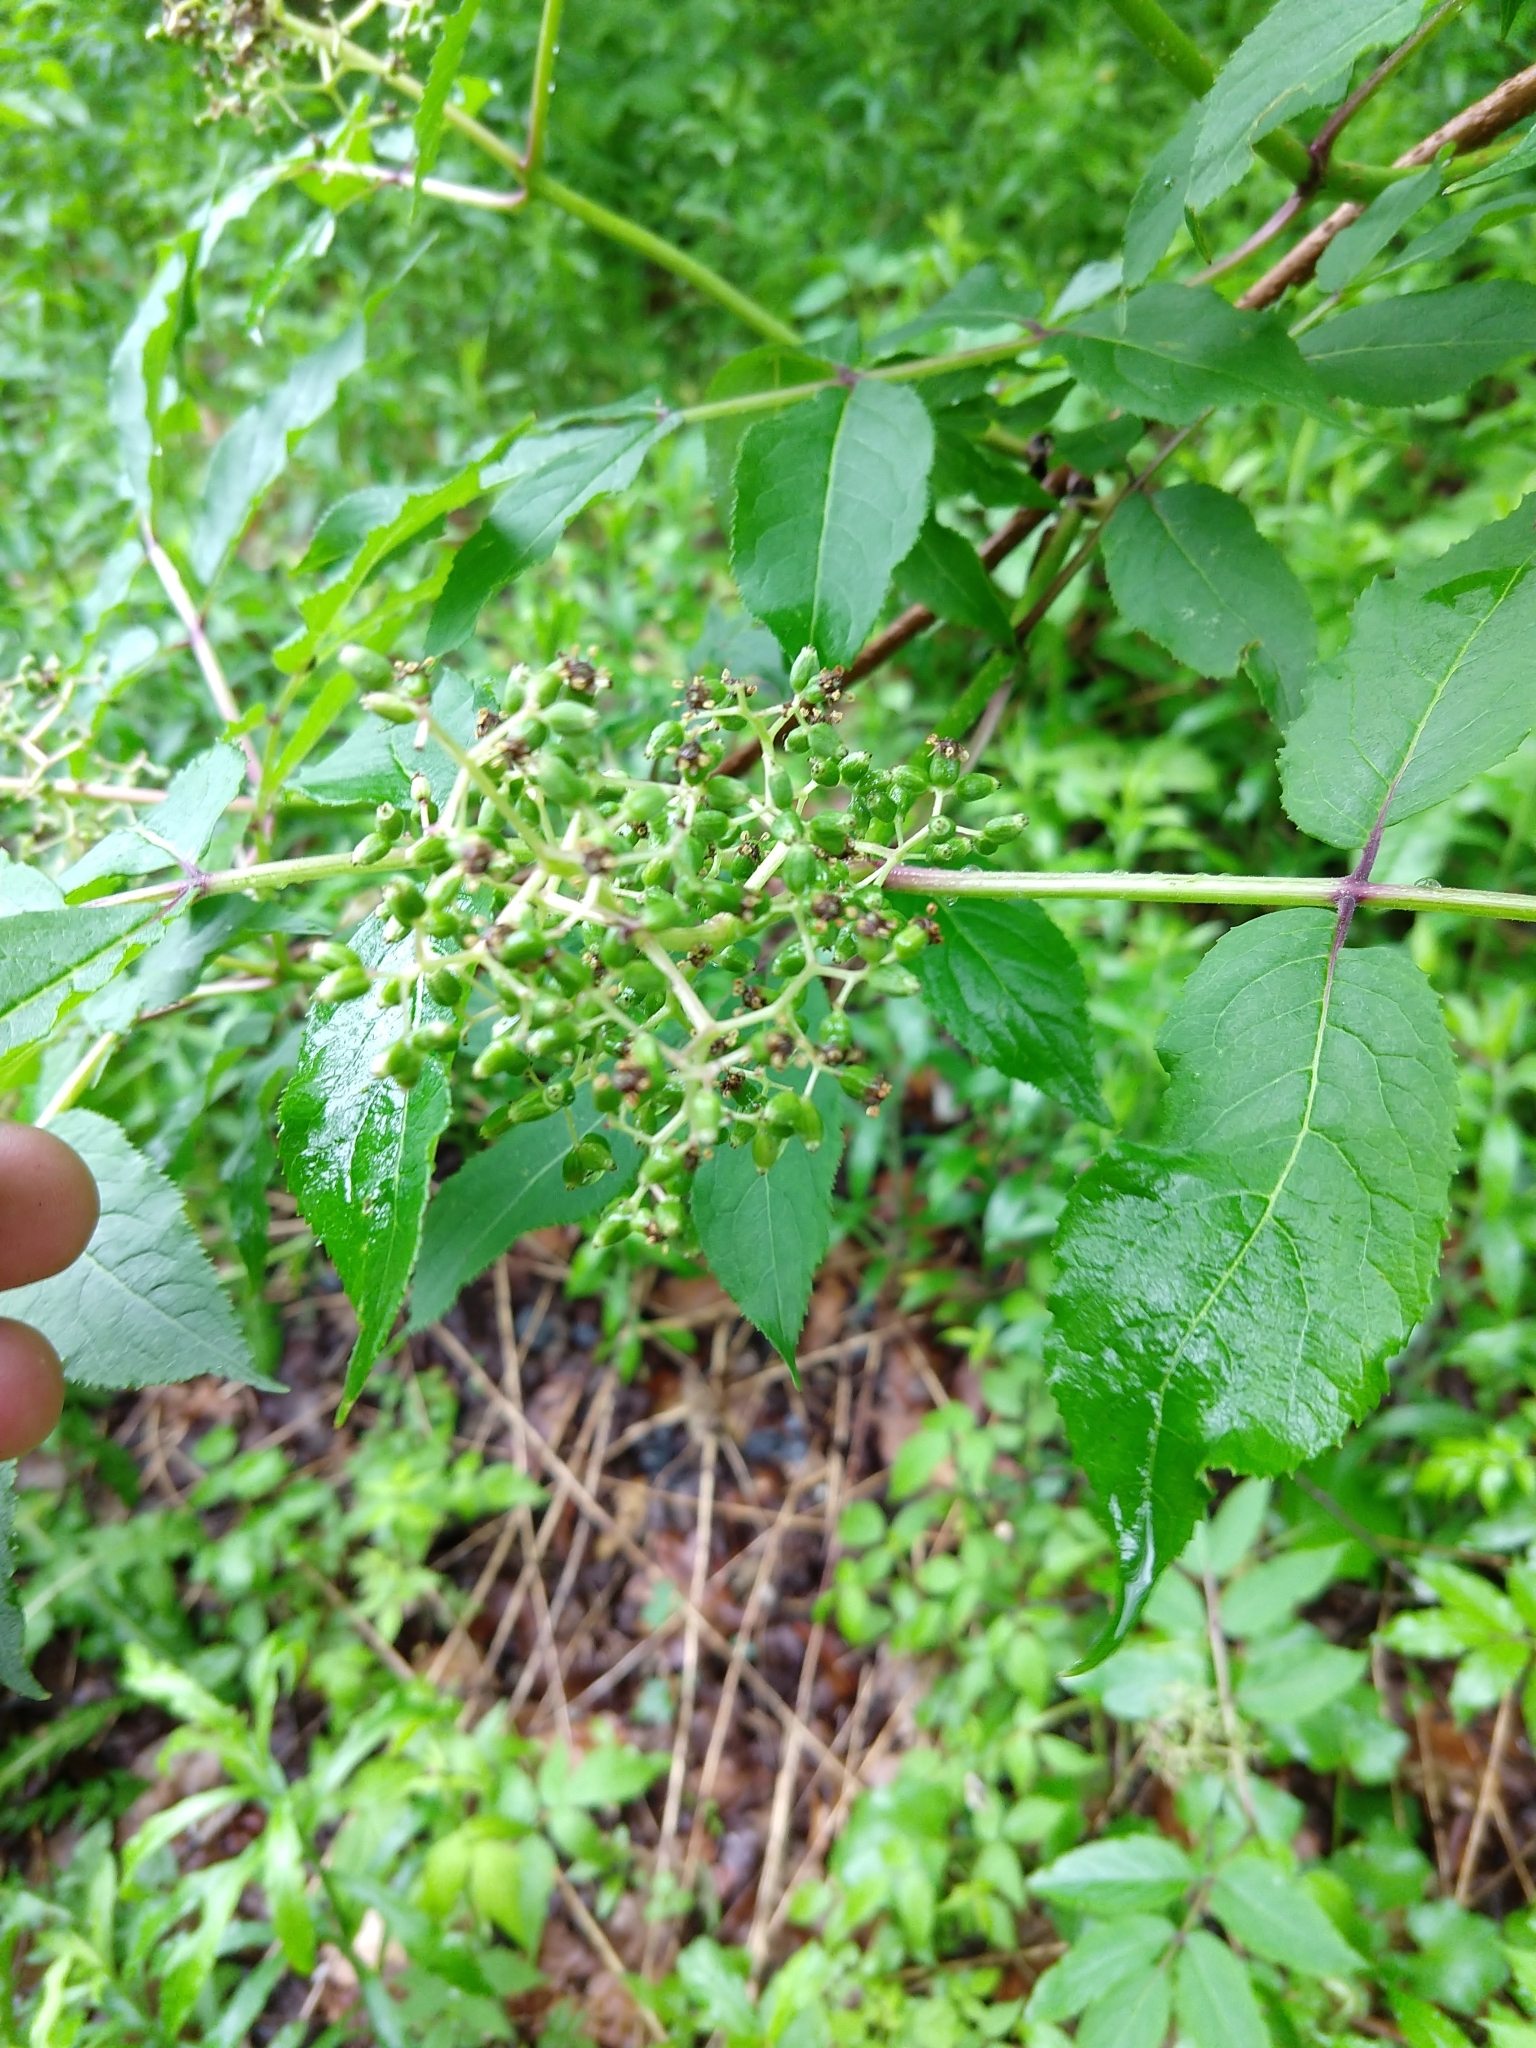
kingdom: Plantae
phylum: Tracheophyta
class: Magnoliopsida
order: Dipsacales
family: Viburnaceae
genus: Sambucus
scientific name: Sambucus racemosa
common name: Red-berried elder
